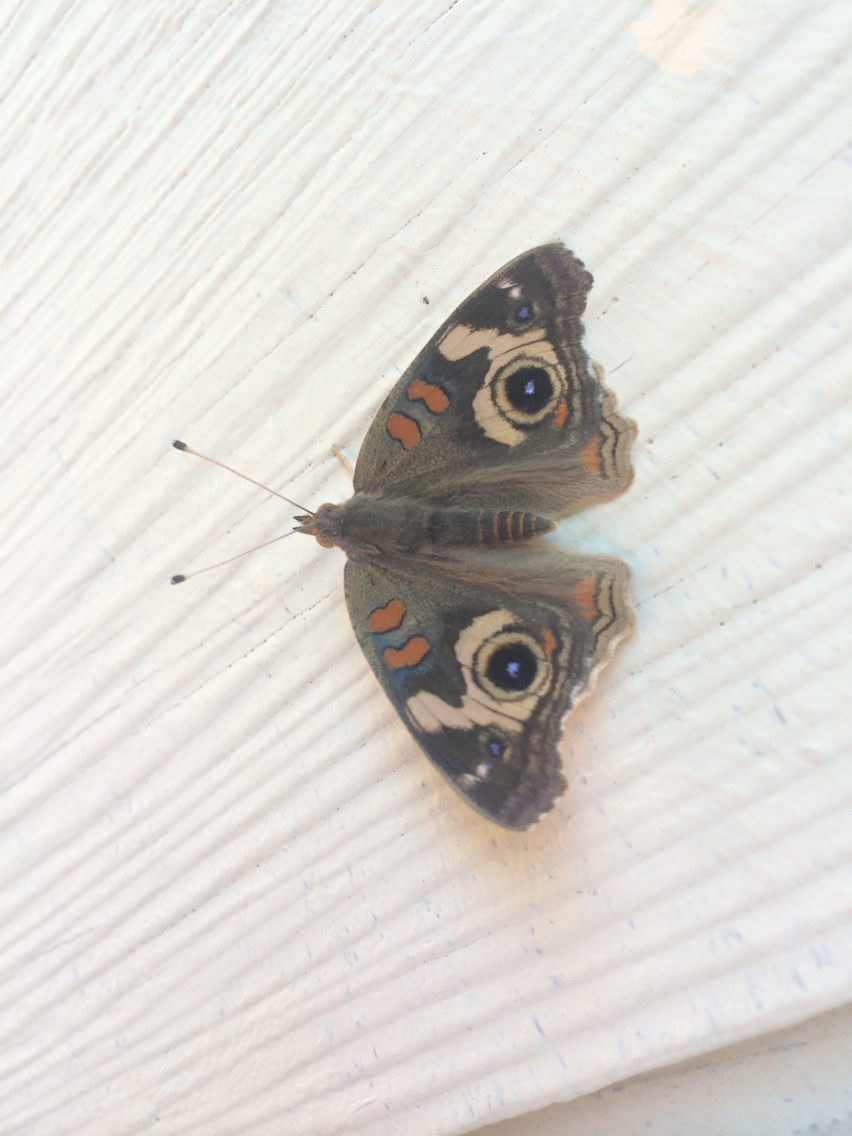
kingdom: Animalia
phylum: Arthropoda
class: Insecta
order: Lepidoptera
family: Nymphalidae
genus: Junonia
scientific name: Junonia grisea
